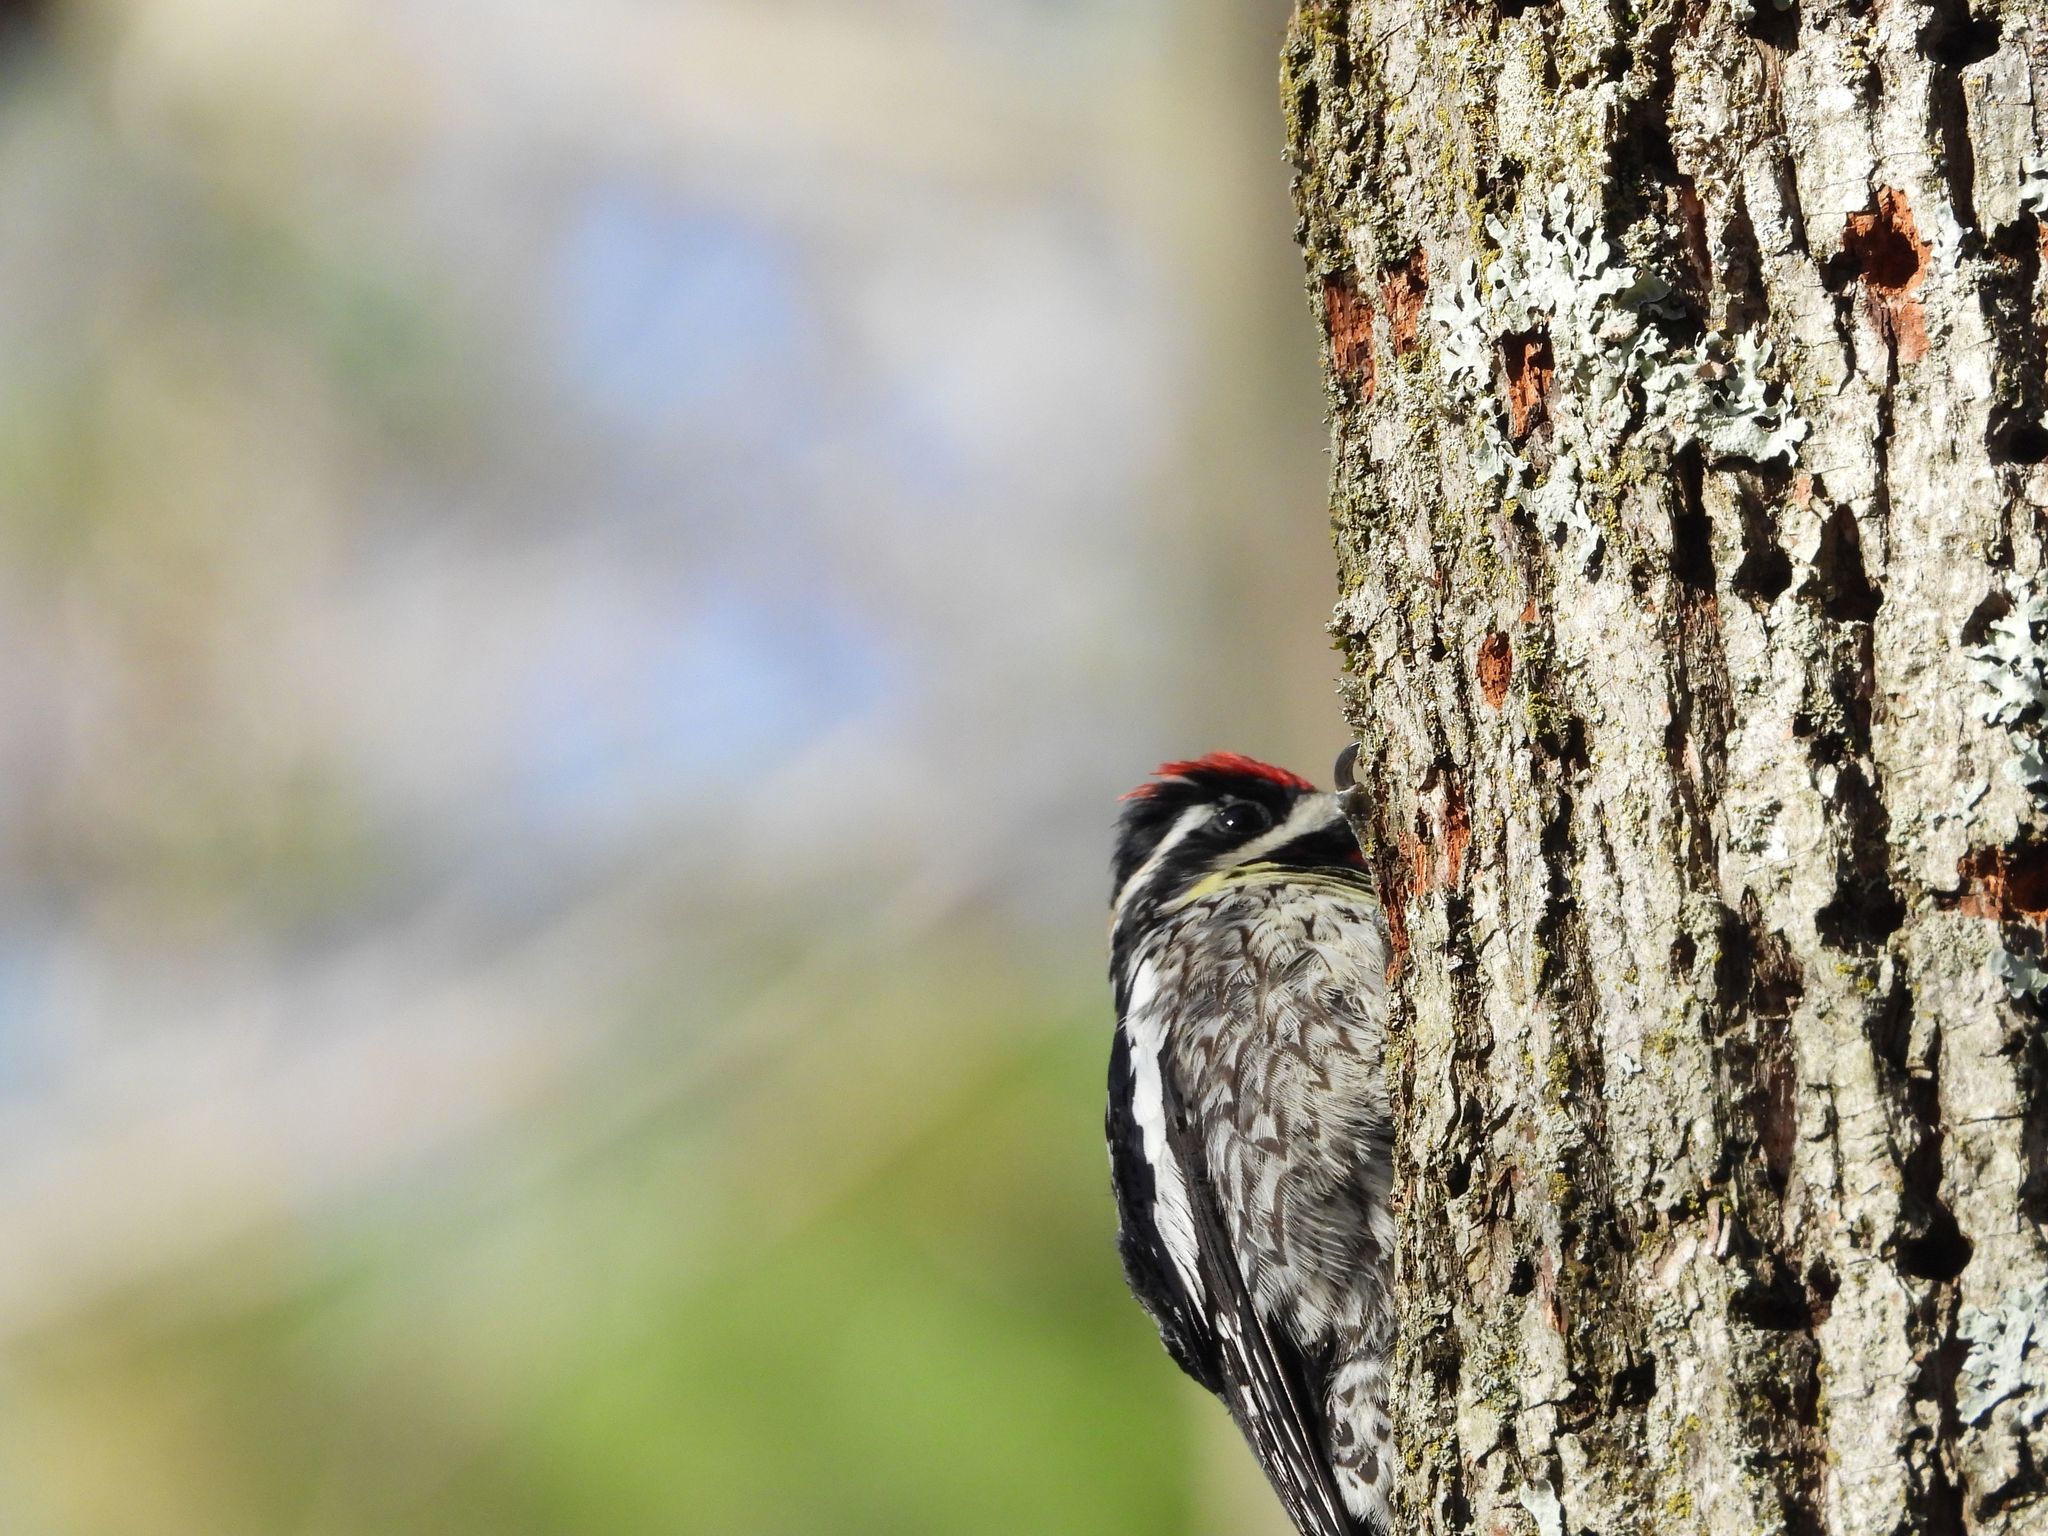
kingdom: Animalia
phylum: Chordata
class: Aves
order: Piciformes
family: Picidae
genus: Sphyrapicus
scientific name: Sphyrapicus varius
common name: Yellow-bellied sapsucker
